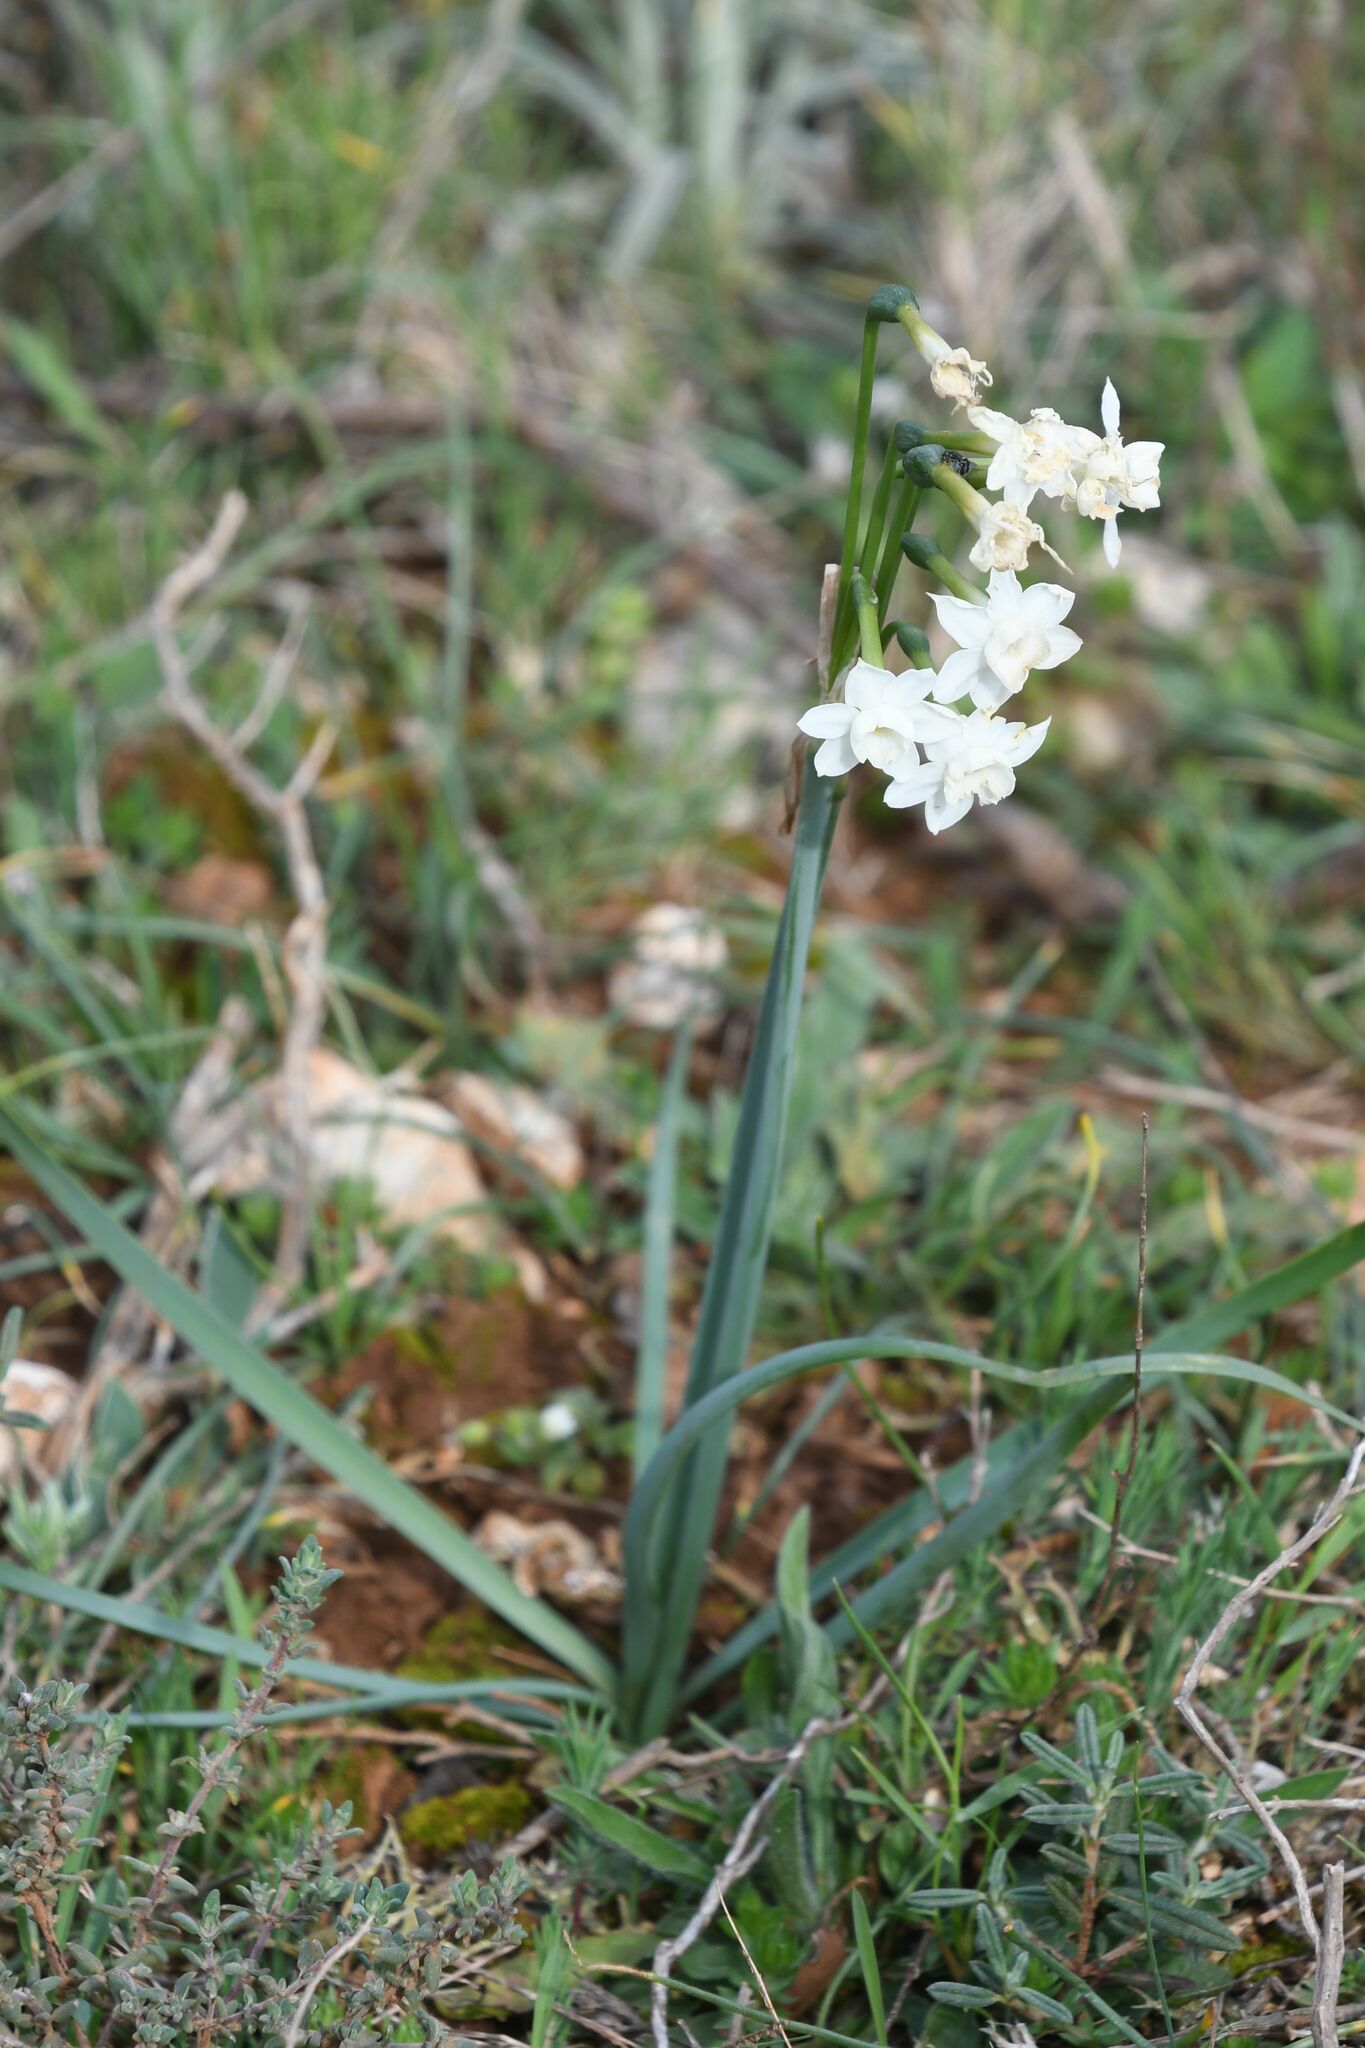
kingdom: Plantae
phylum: Tracheophyta
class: Liliopsida
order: Asparagales
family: Amaryllidaceae
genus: Narcissus
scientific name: Narcissus dubius
